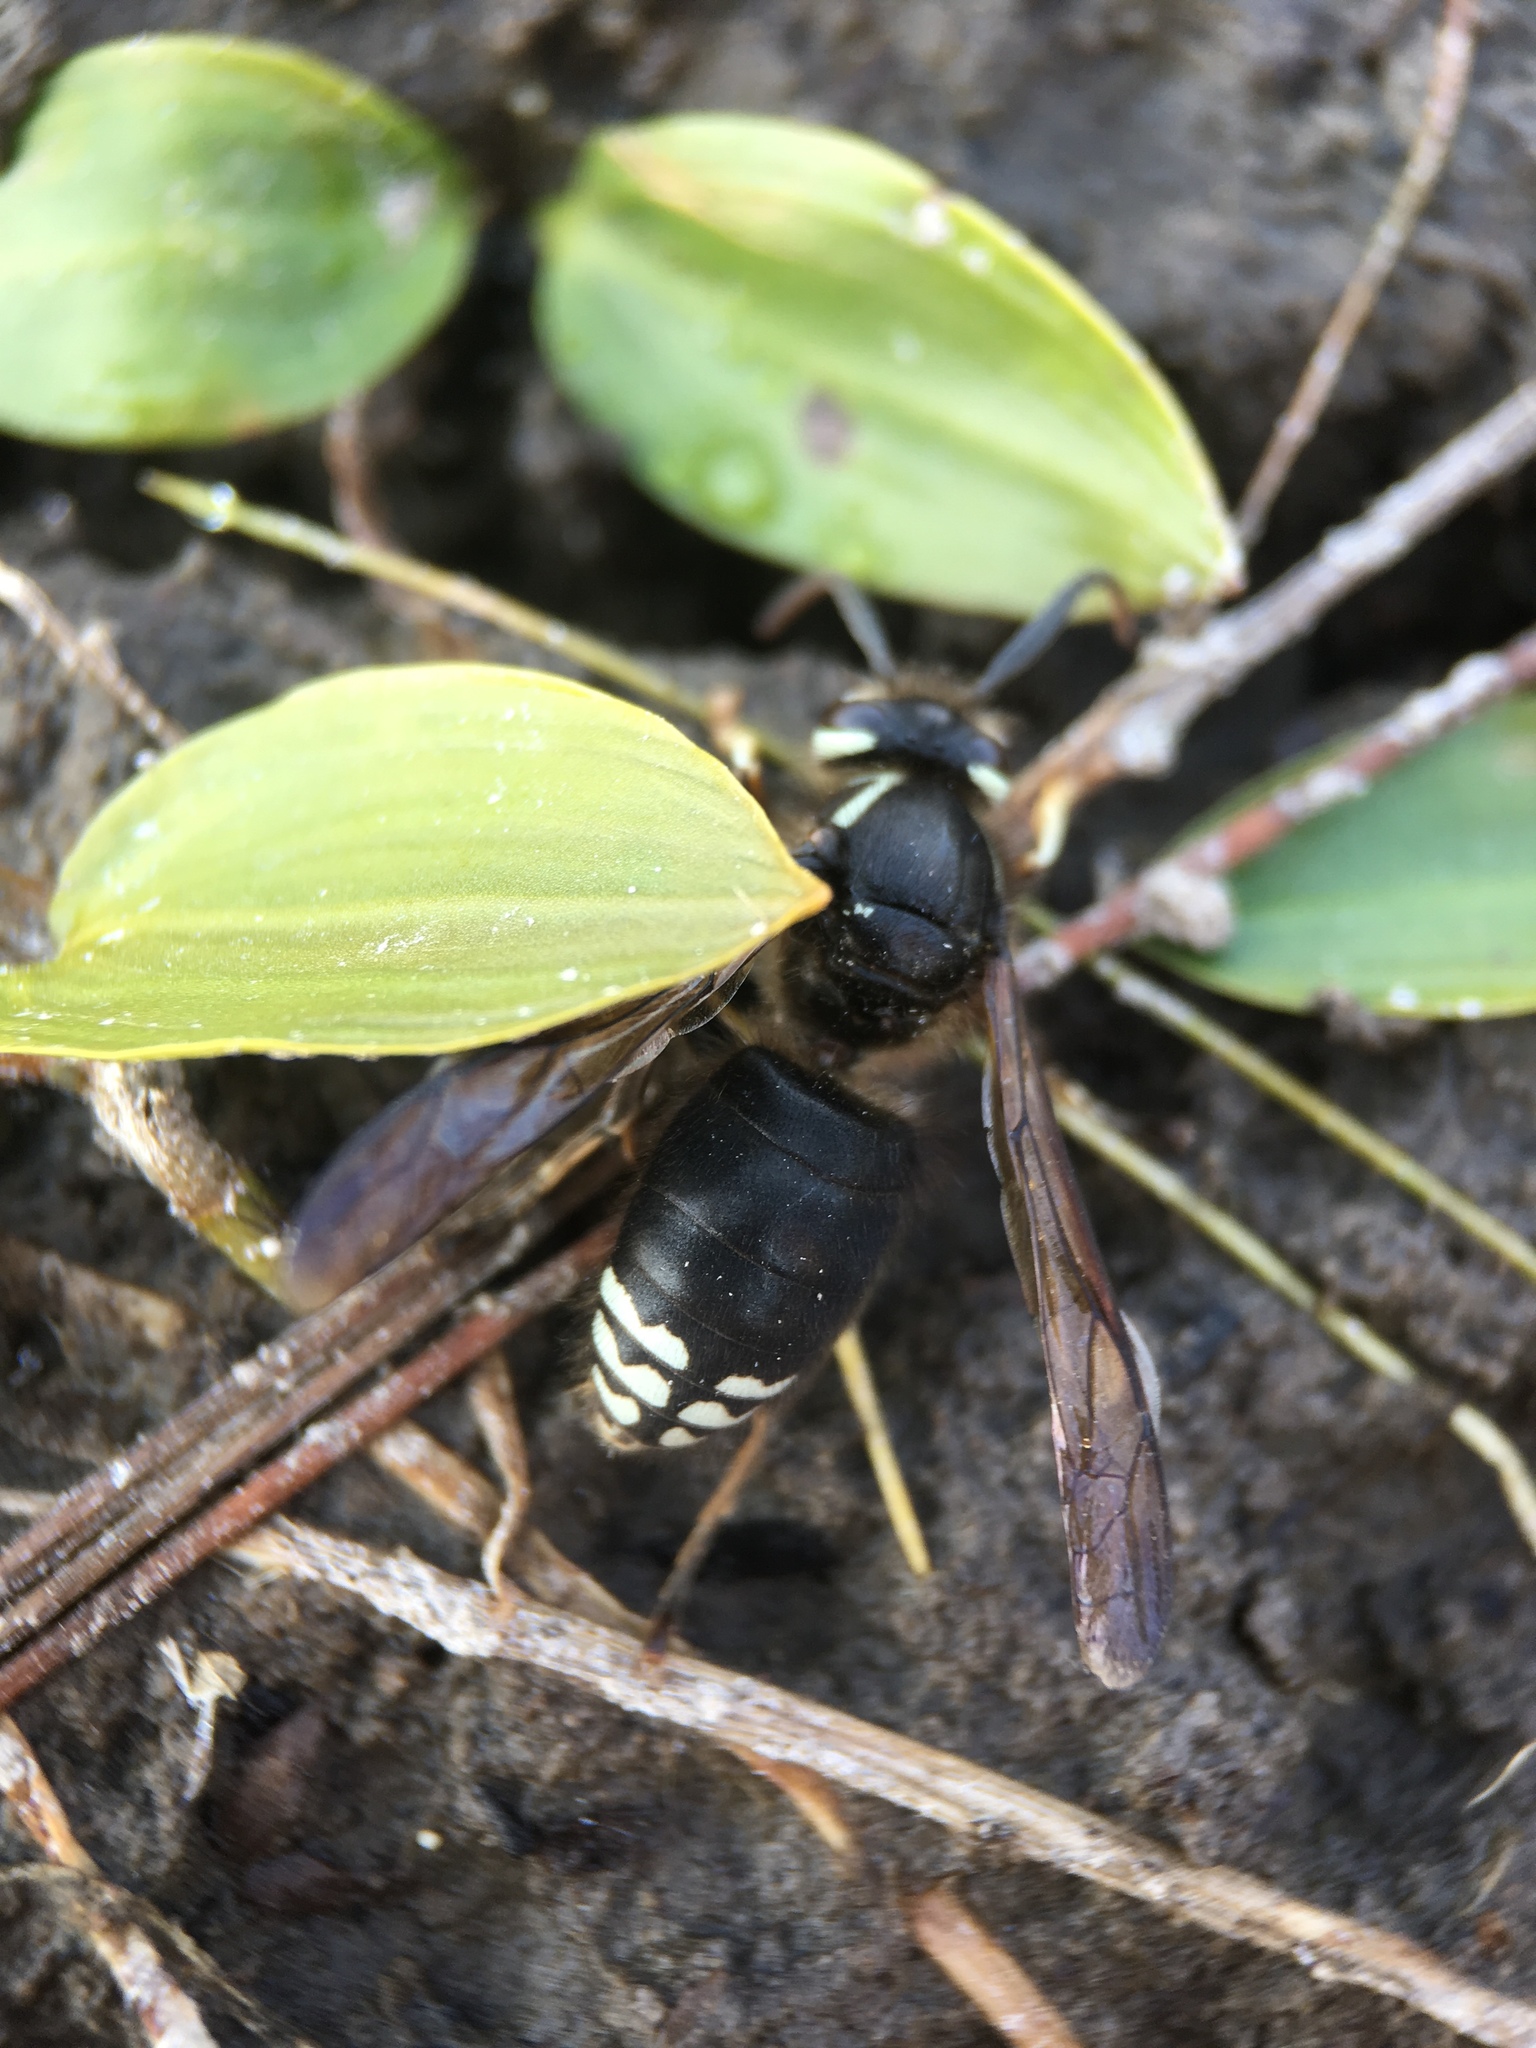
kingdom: Animalia
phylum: Arthropoda
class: Insecta
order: Hymenoptera
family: Vespidae
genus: Dolichovespula
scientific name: Dolichovespula maculata
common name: Bald-faced hornet
